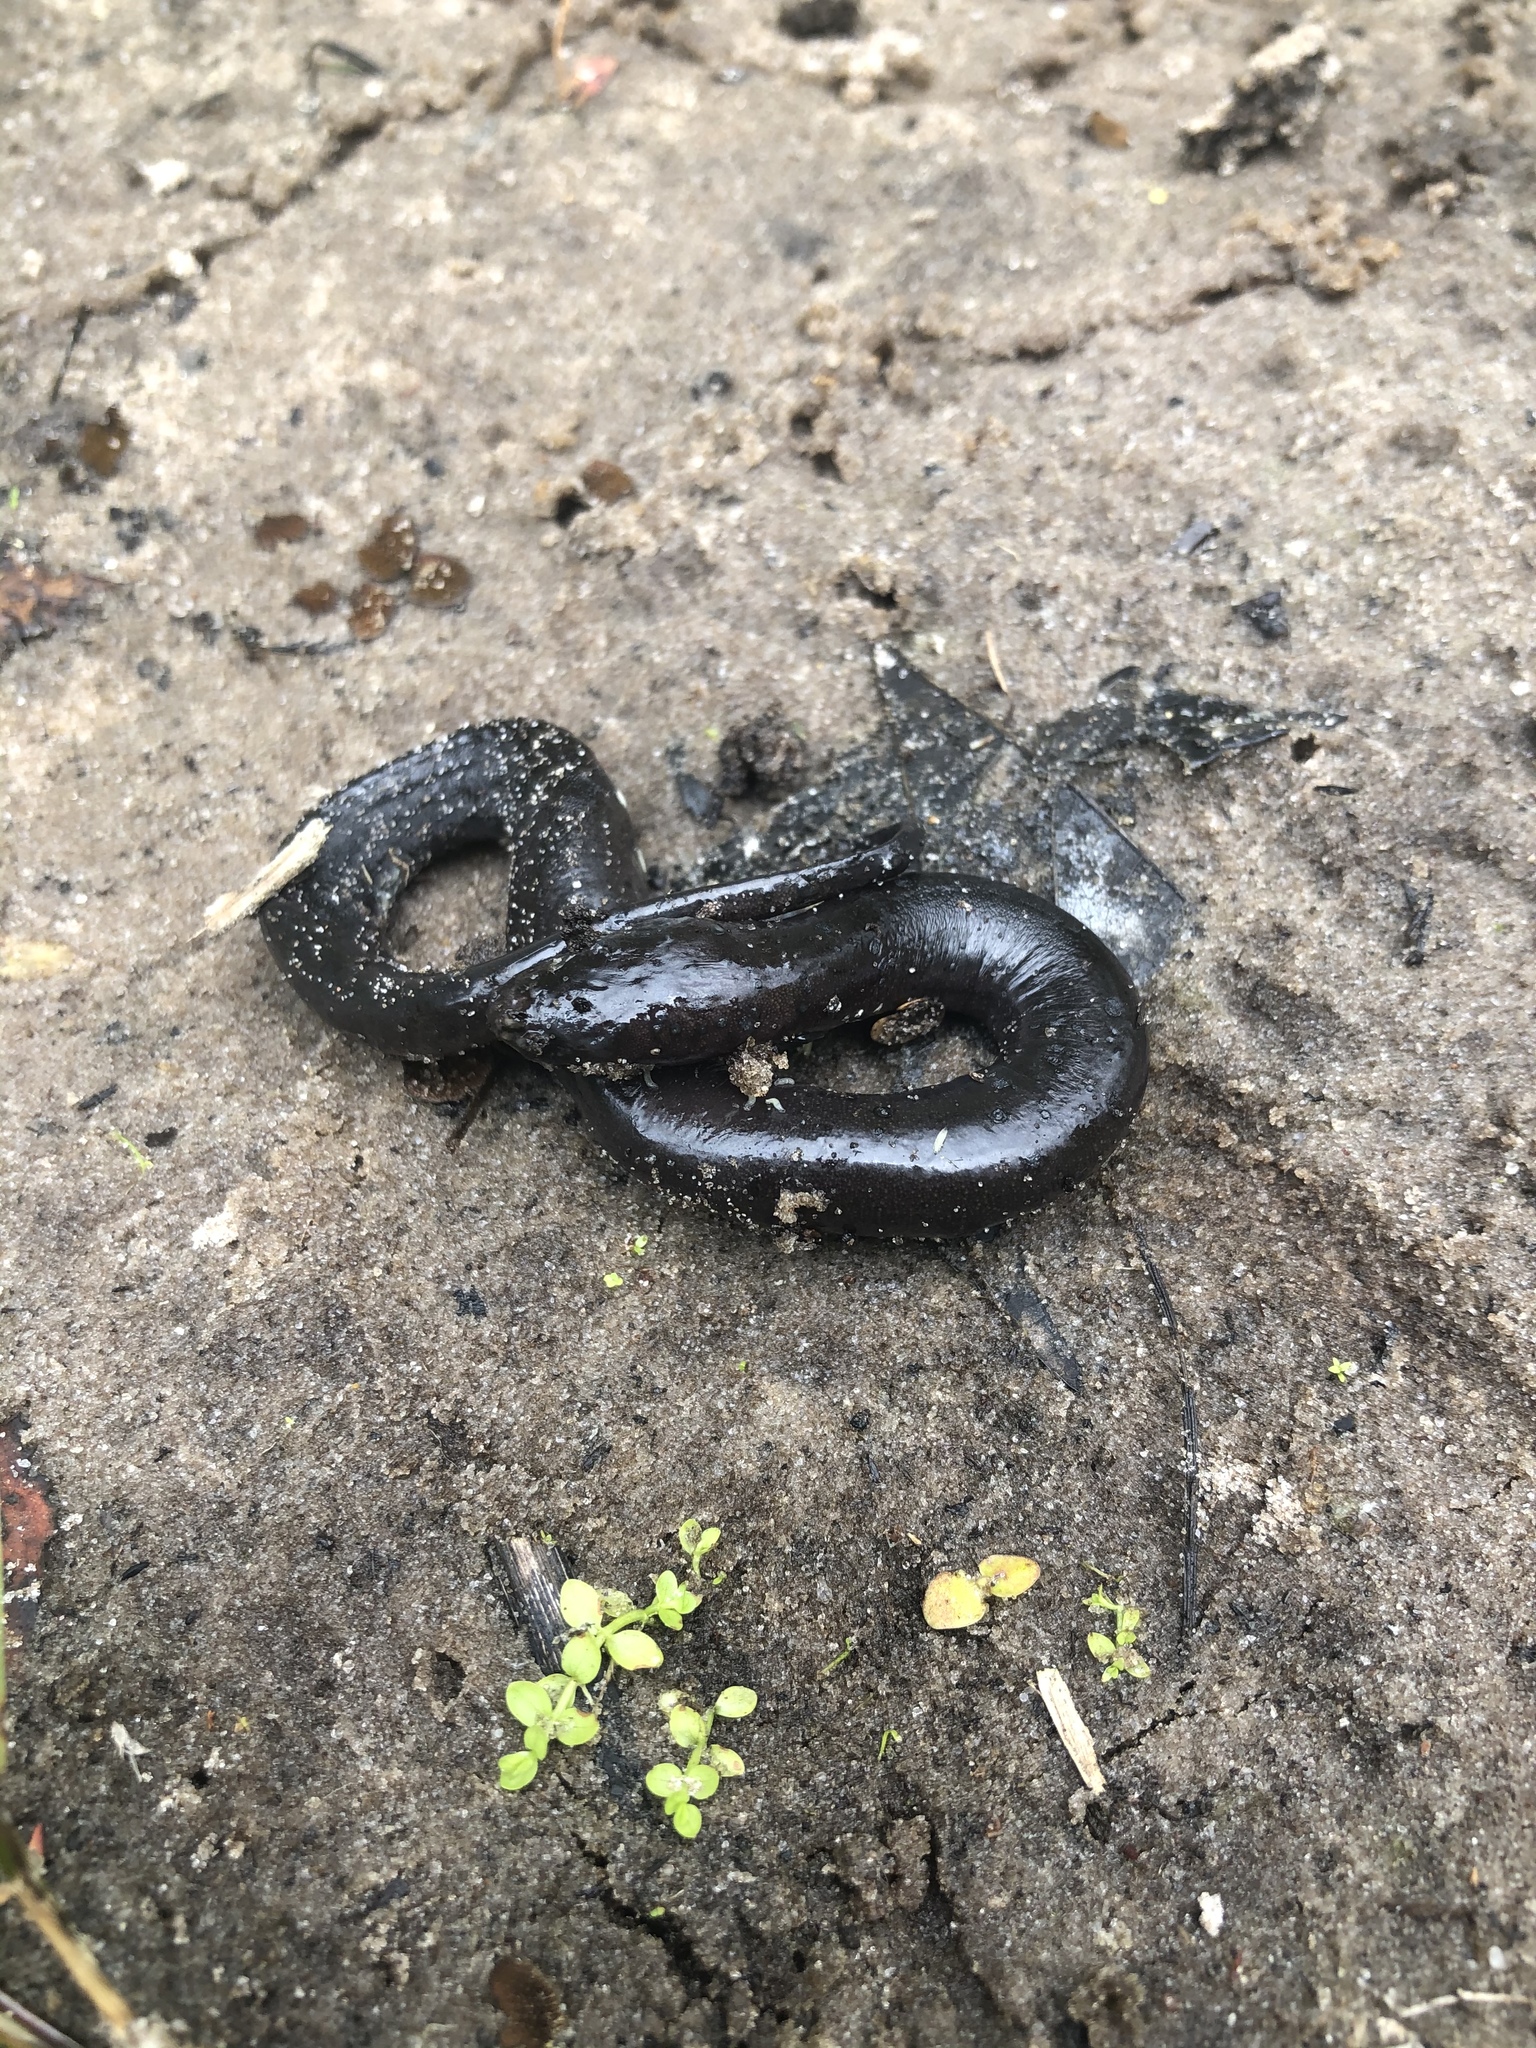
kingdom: Animalia
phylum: Chordata
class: Amphibia
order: Caudata
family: Amphiumidae
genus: Amphiuma
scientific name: Amphiuma means
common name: Two-toed amphiuma
